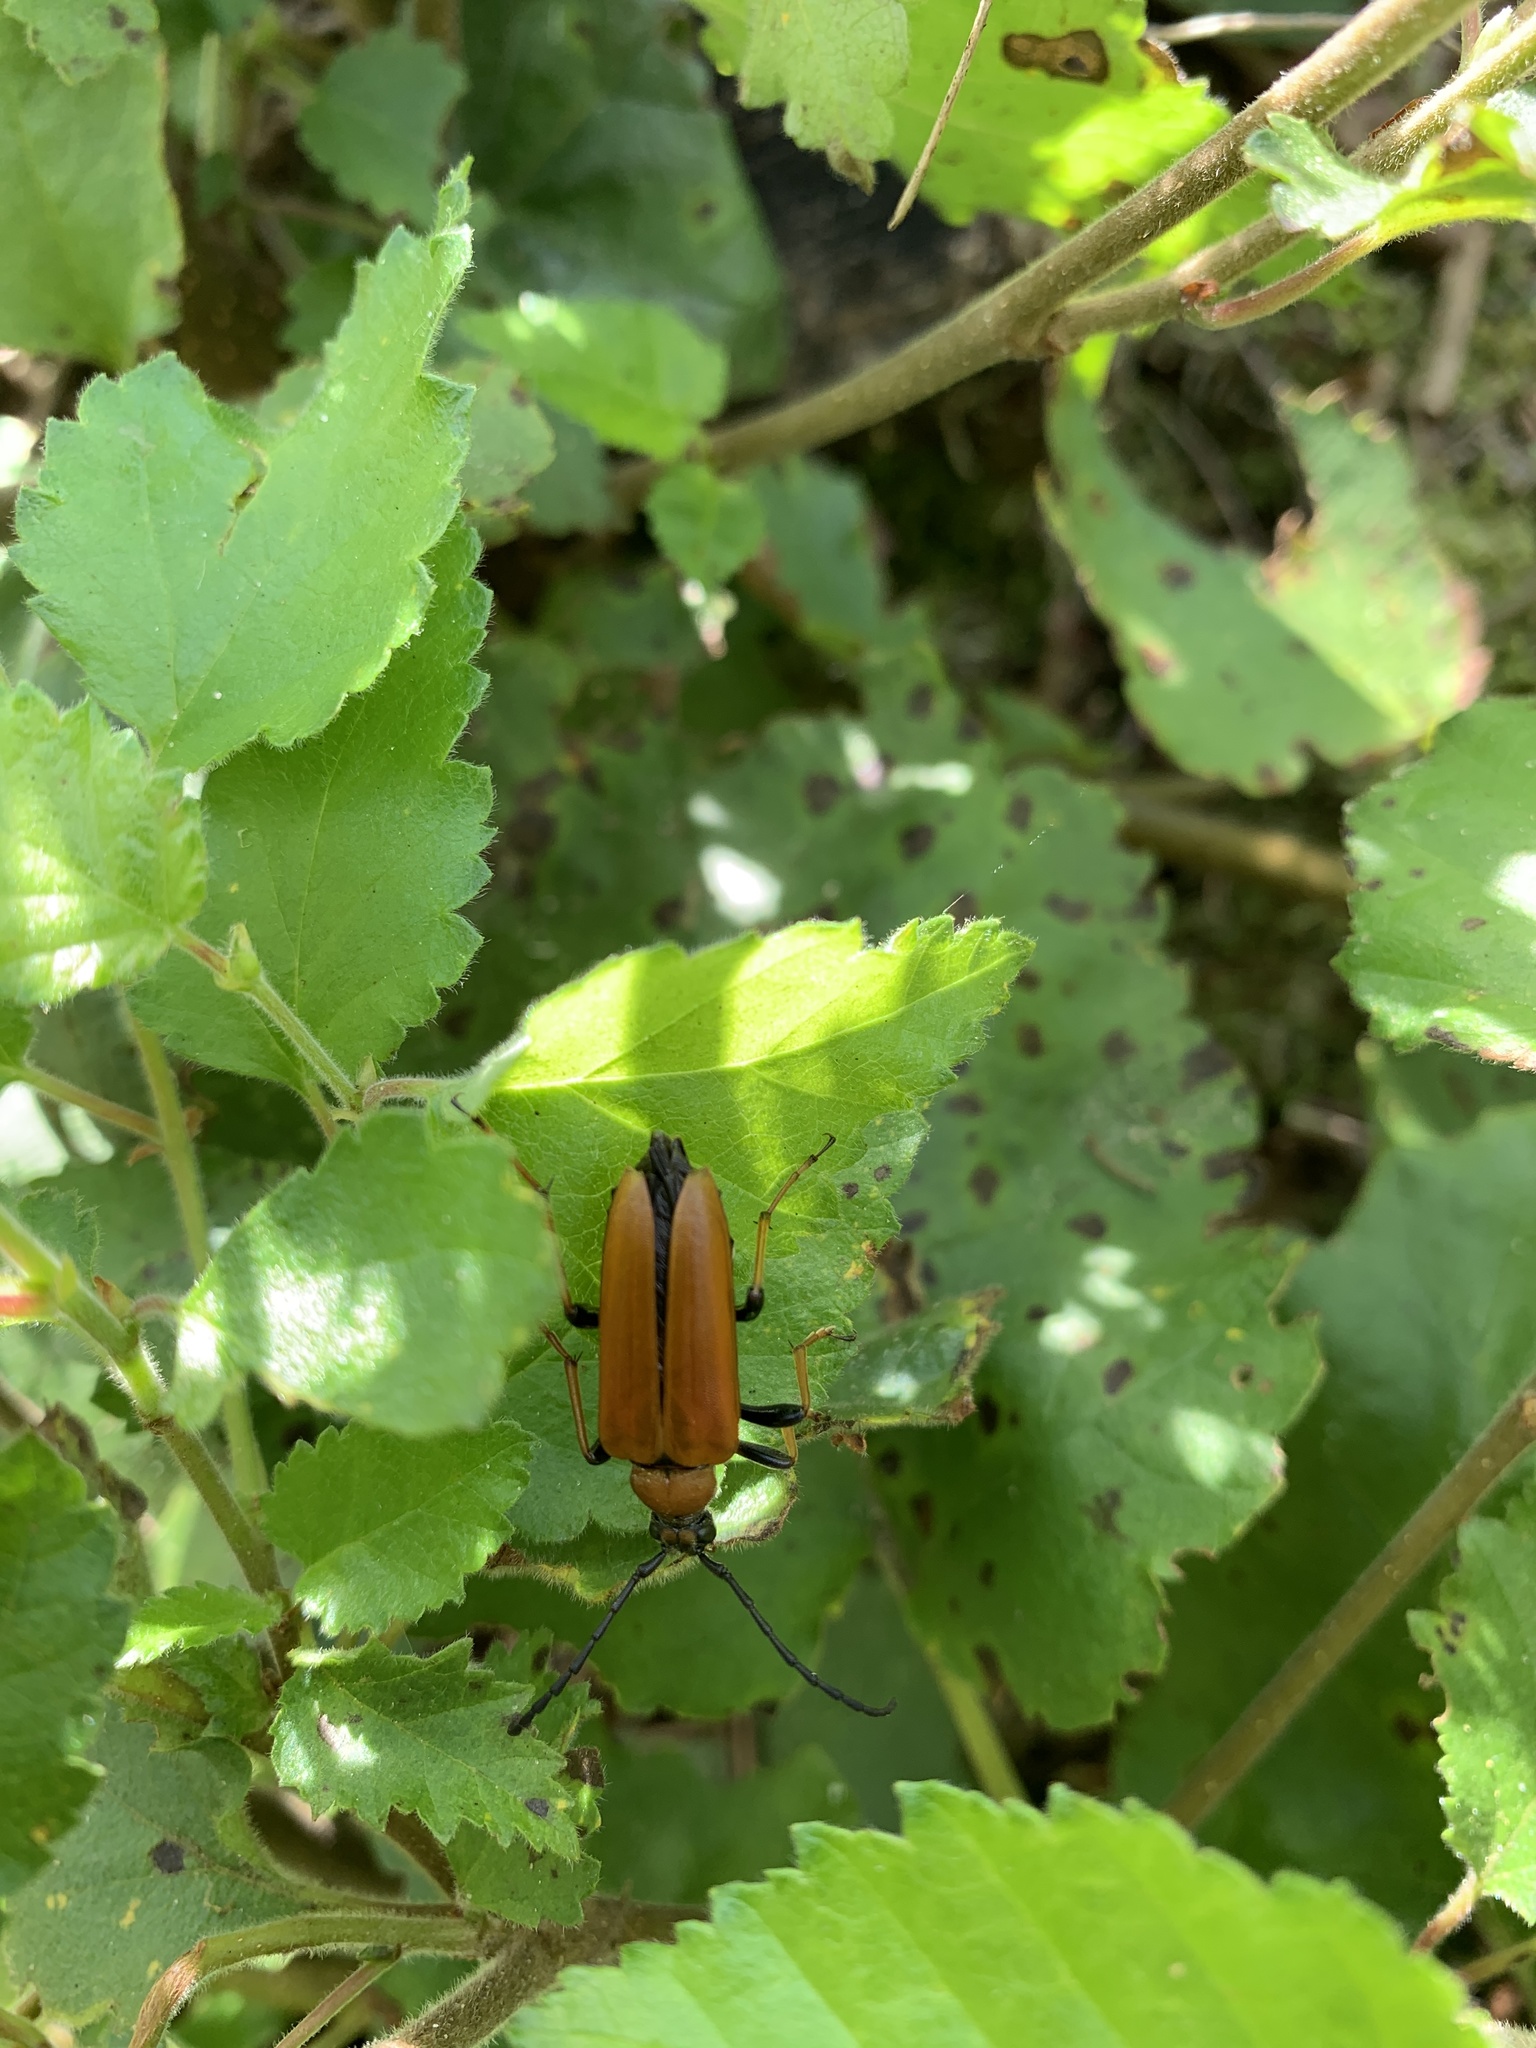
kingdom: Animalia
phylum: Arthropoda
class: Insecta
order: Coleoptera
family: Cerambycidae
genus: Stictoleptura
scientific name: Stictoleptura rubra
